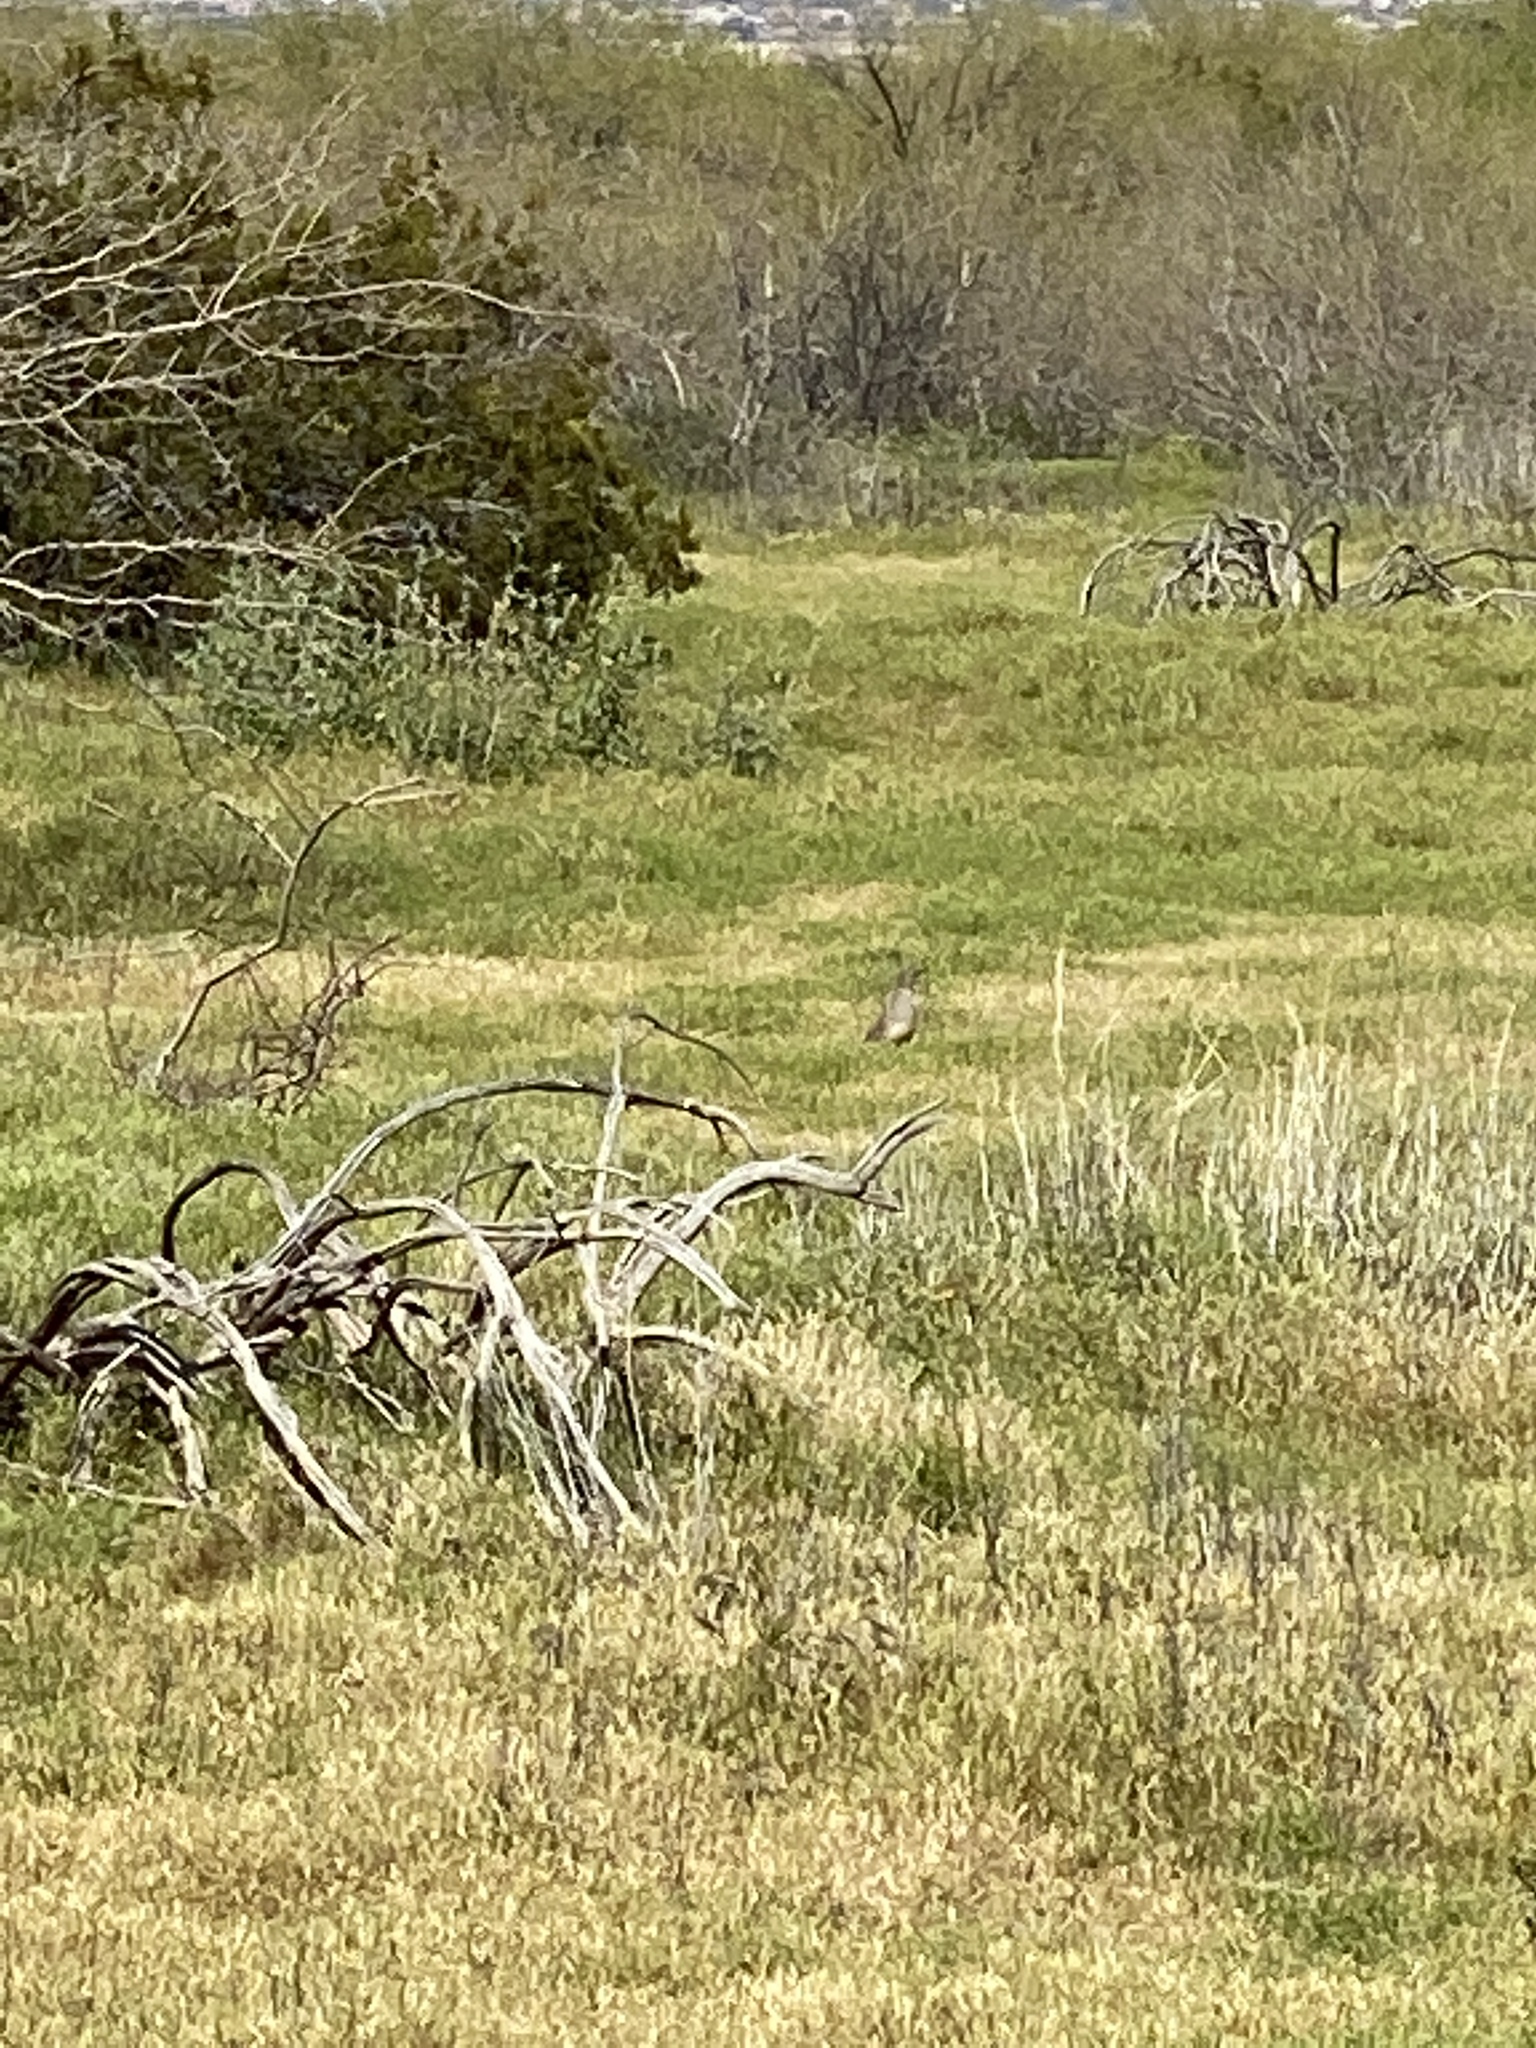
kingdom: Animalia
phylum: Chordata
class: Aves
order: Galliformes
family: Odontophoridae
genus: Callipepla
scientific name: Callipepla gambelii
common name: Gambel's quail
